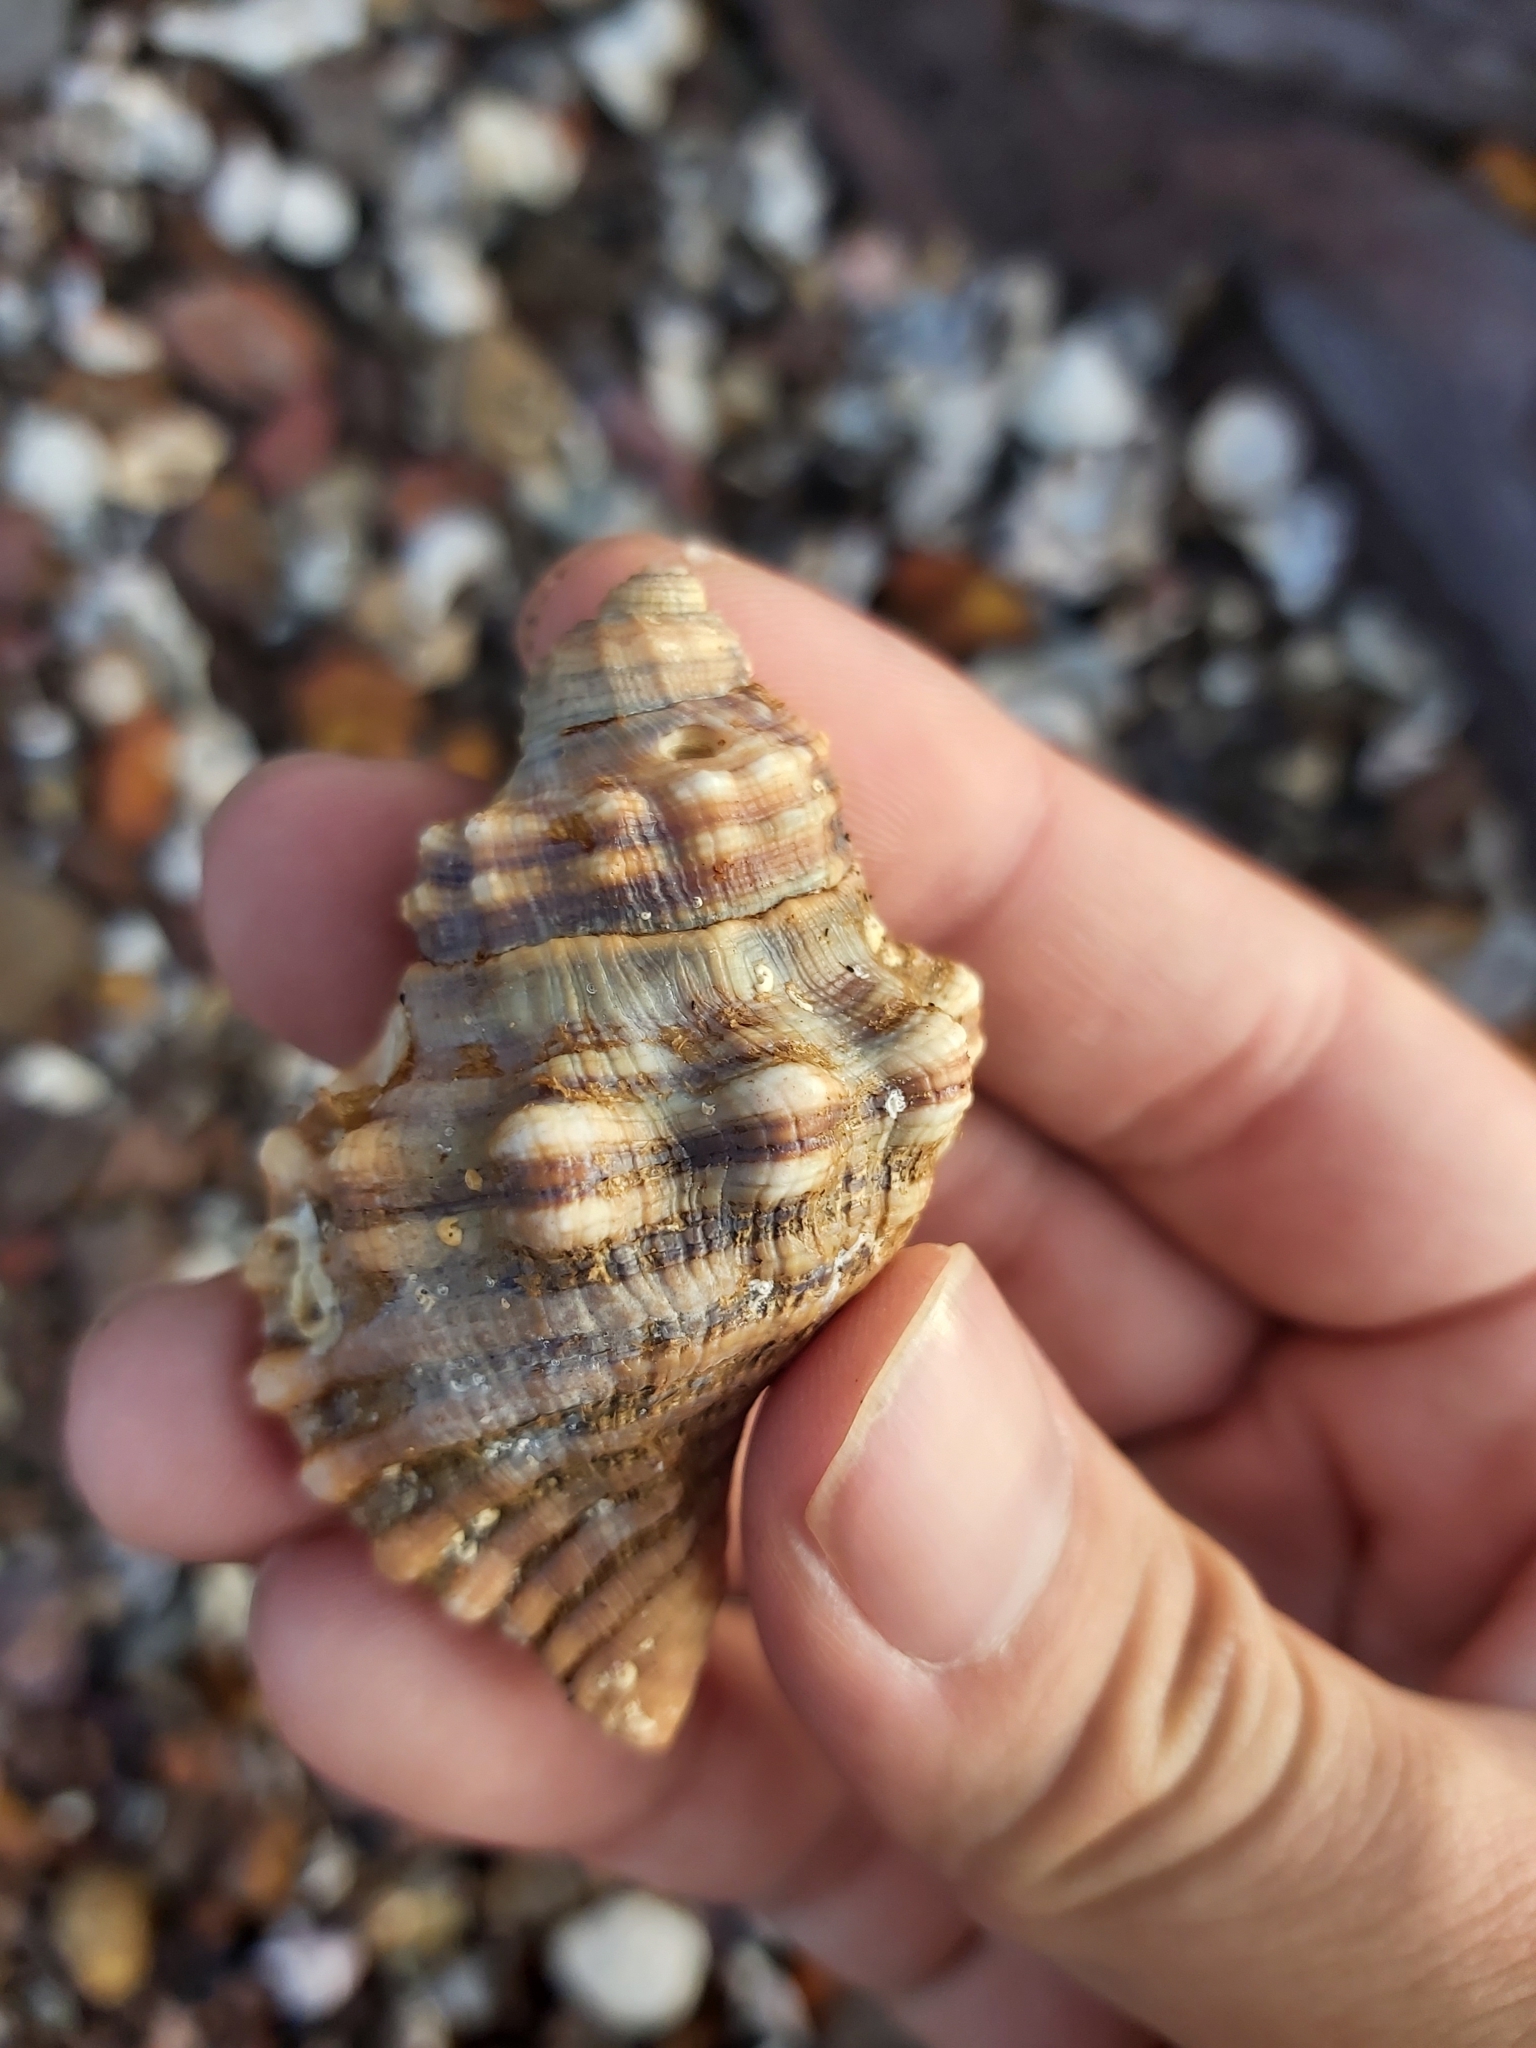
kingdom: Animalia
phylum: Mollusca
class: Gastropoda
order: Littorinimorpha
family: Cymatiidae
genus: Cabestana
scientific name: Cabestana spengleri
